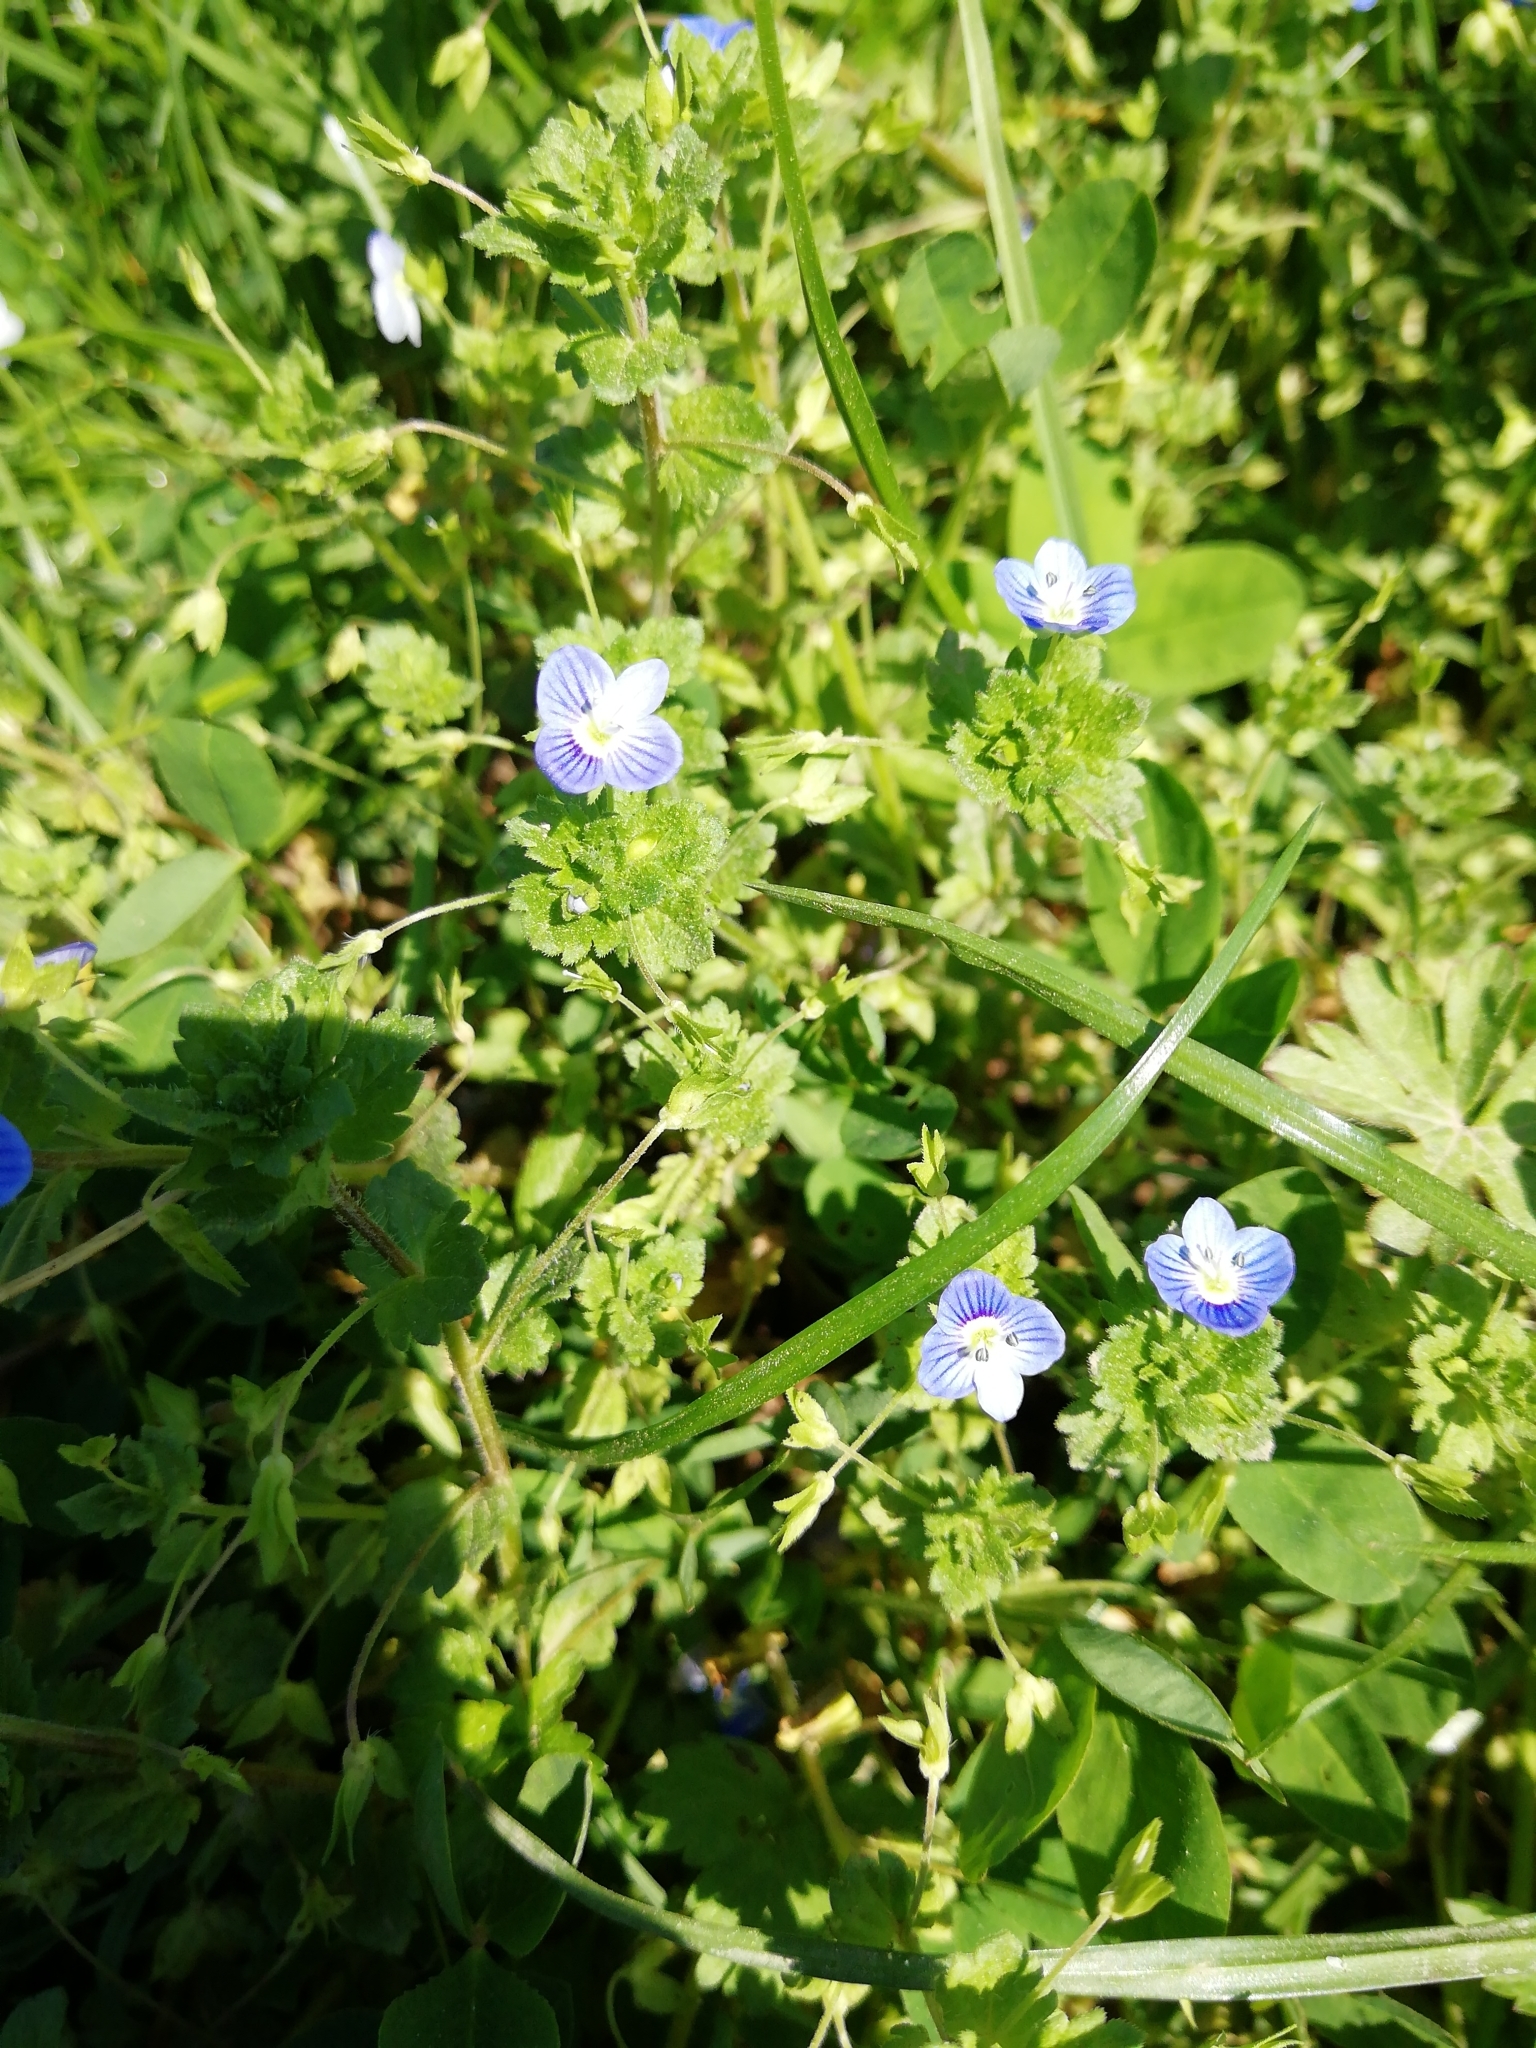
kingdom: Plantae
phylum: Tracheophyta
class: Magnoliopsida
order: Lamiales
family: Plantaginaceae
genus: Veronica
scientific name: Veronica persica
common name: Common field-speedwell
